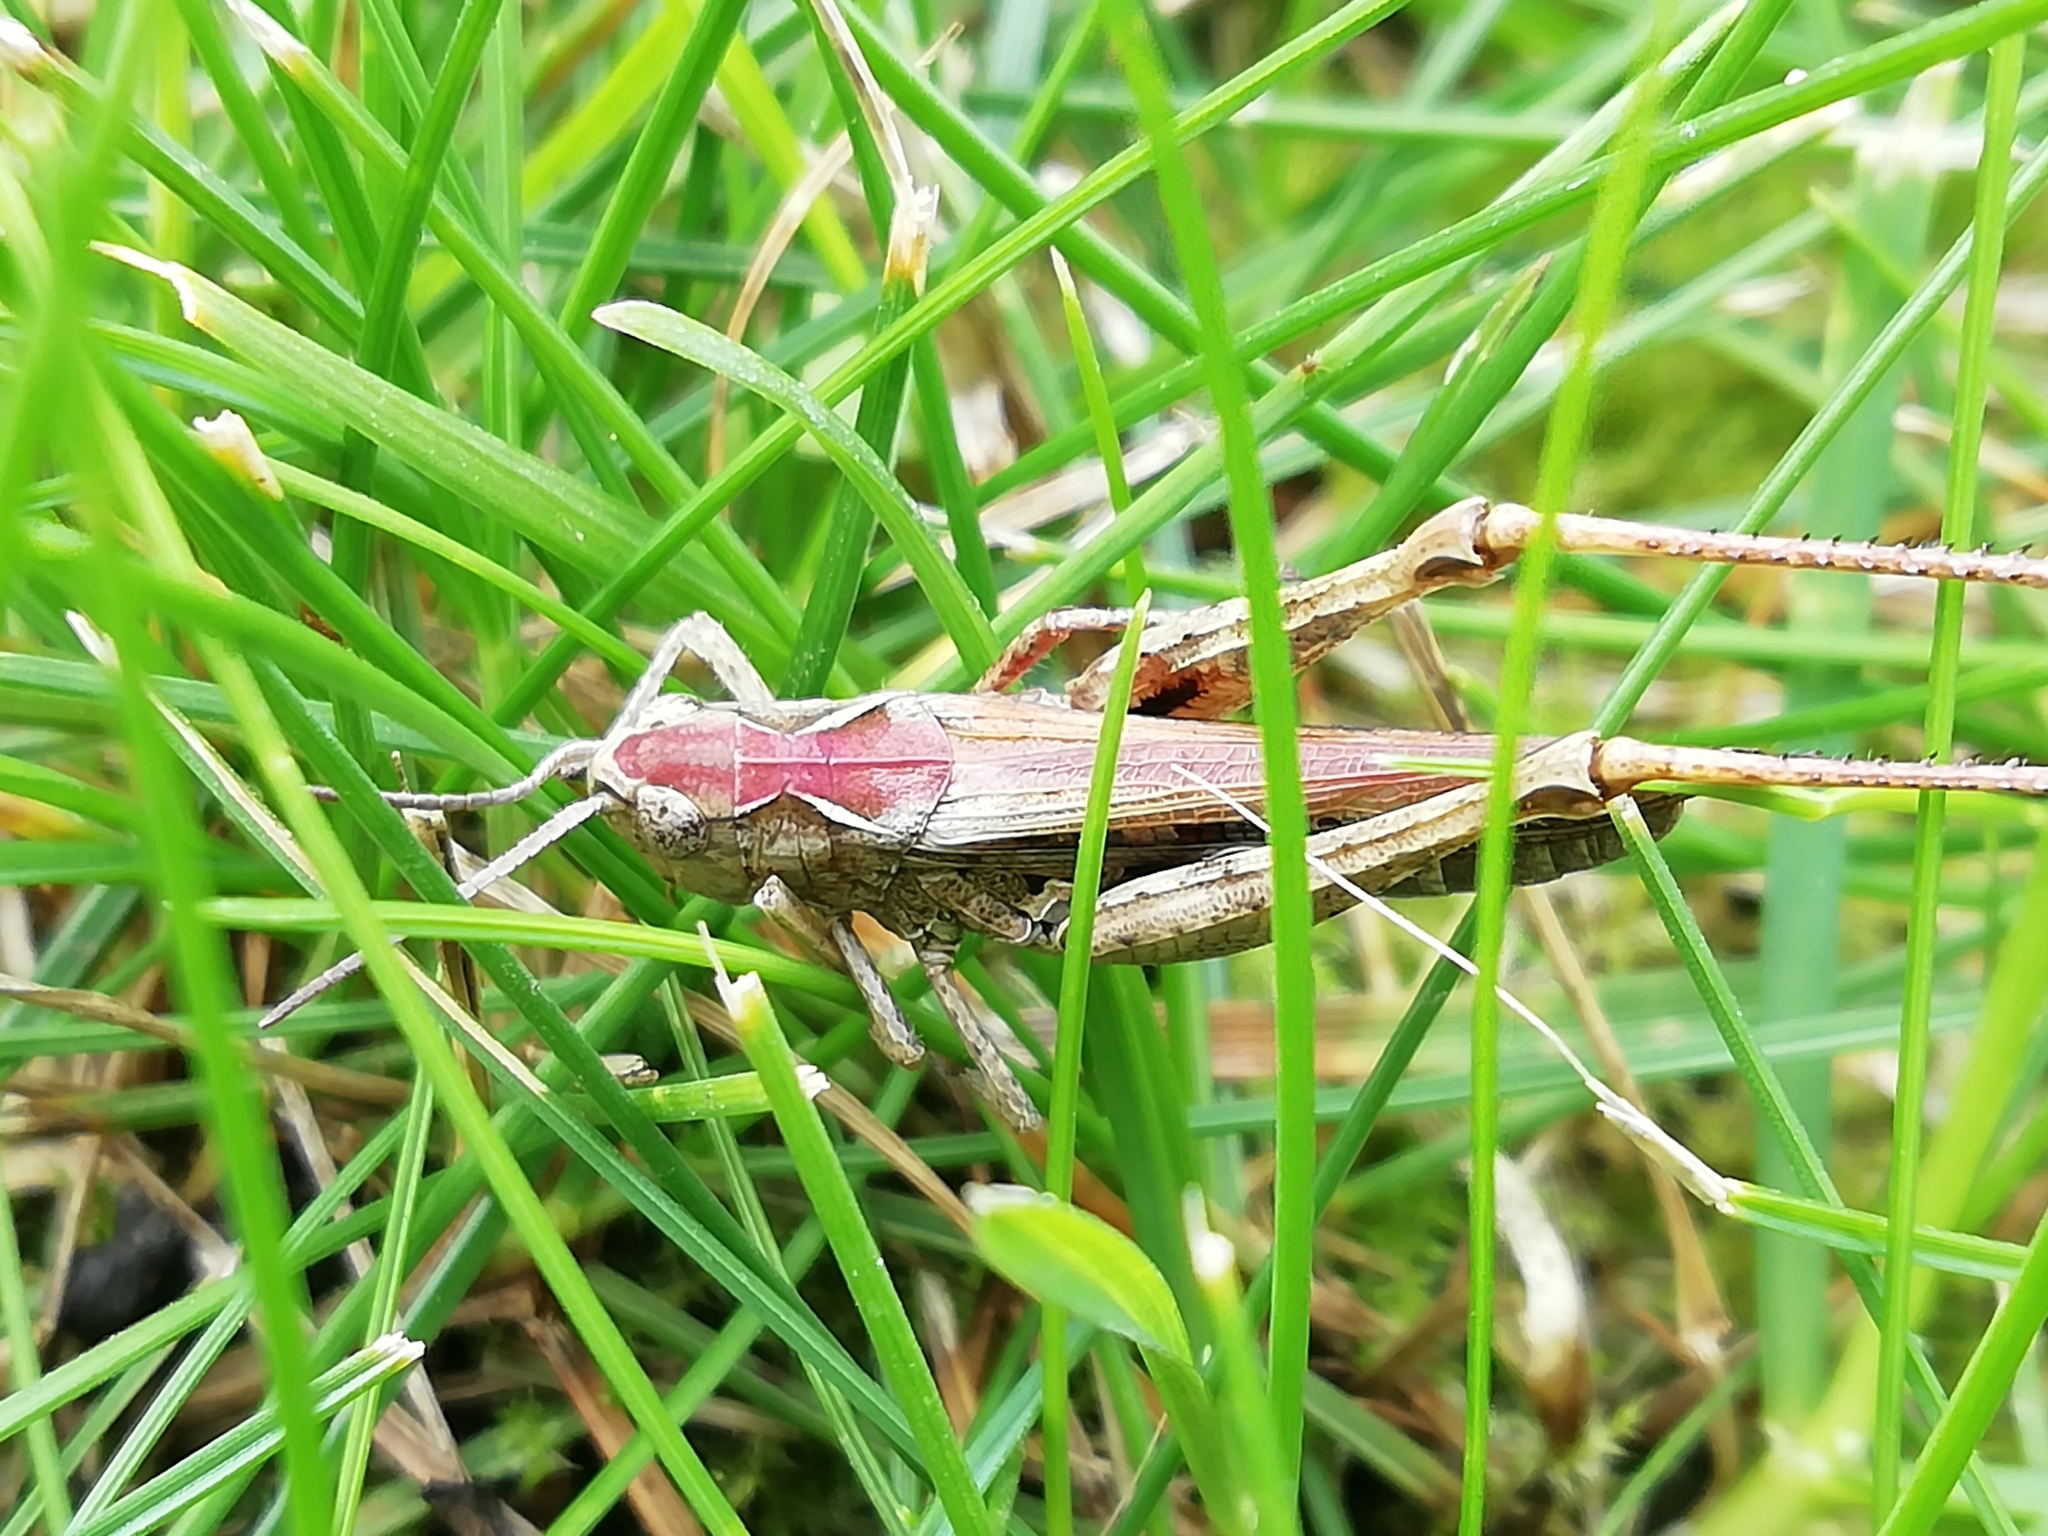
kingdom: Animalia
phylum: Arthropoda
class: Insecta
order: Orthoptera
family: Acrididae
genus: Chorthippus
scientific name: Chorthippus biguttulus
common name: Bow-winged grasshopper
